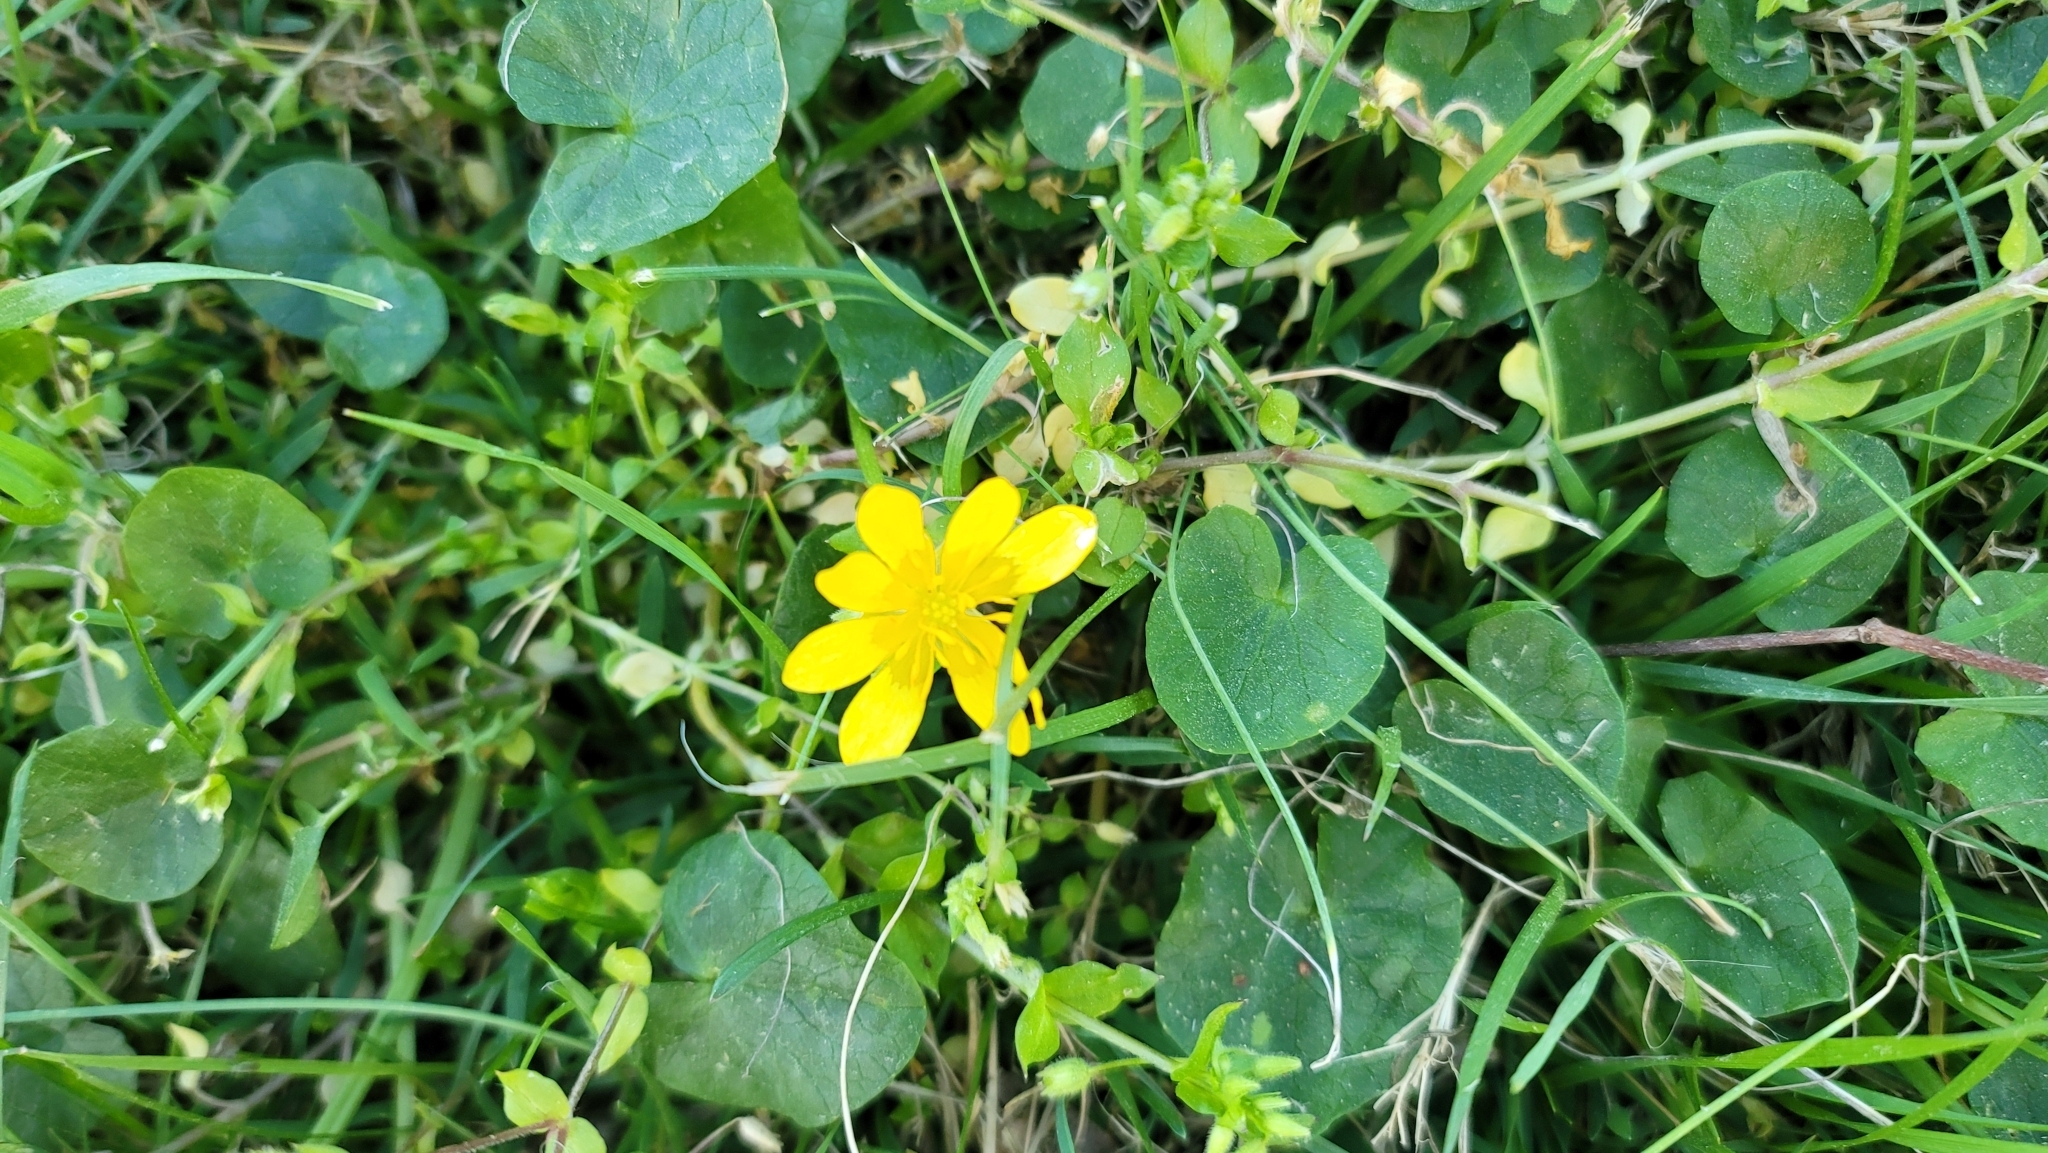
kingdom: Plantae
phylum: Tracheophyta
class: Magnoliopsida
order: Ranunculales
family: Ranunculaceae
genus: Ficaria
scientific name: Ficaria verna
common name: Lesser celandine
